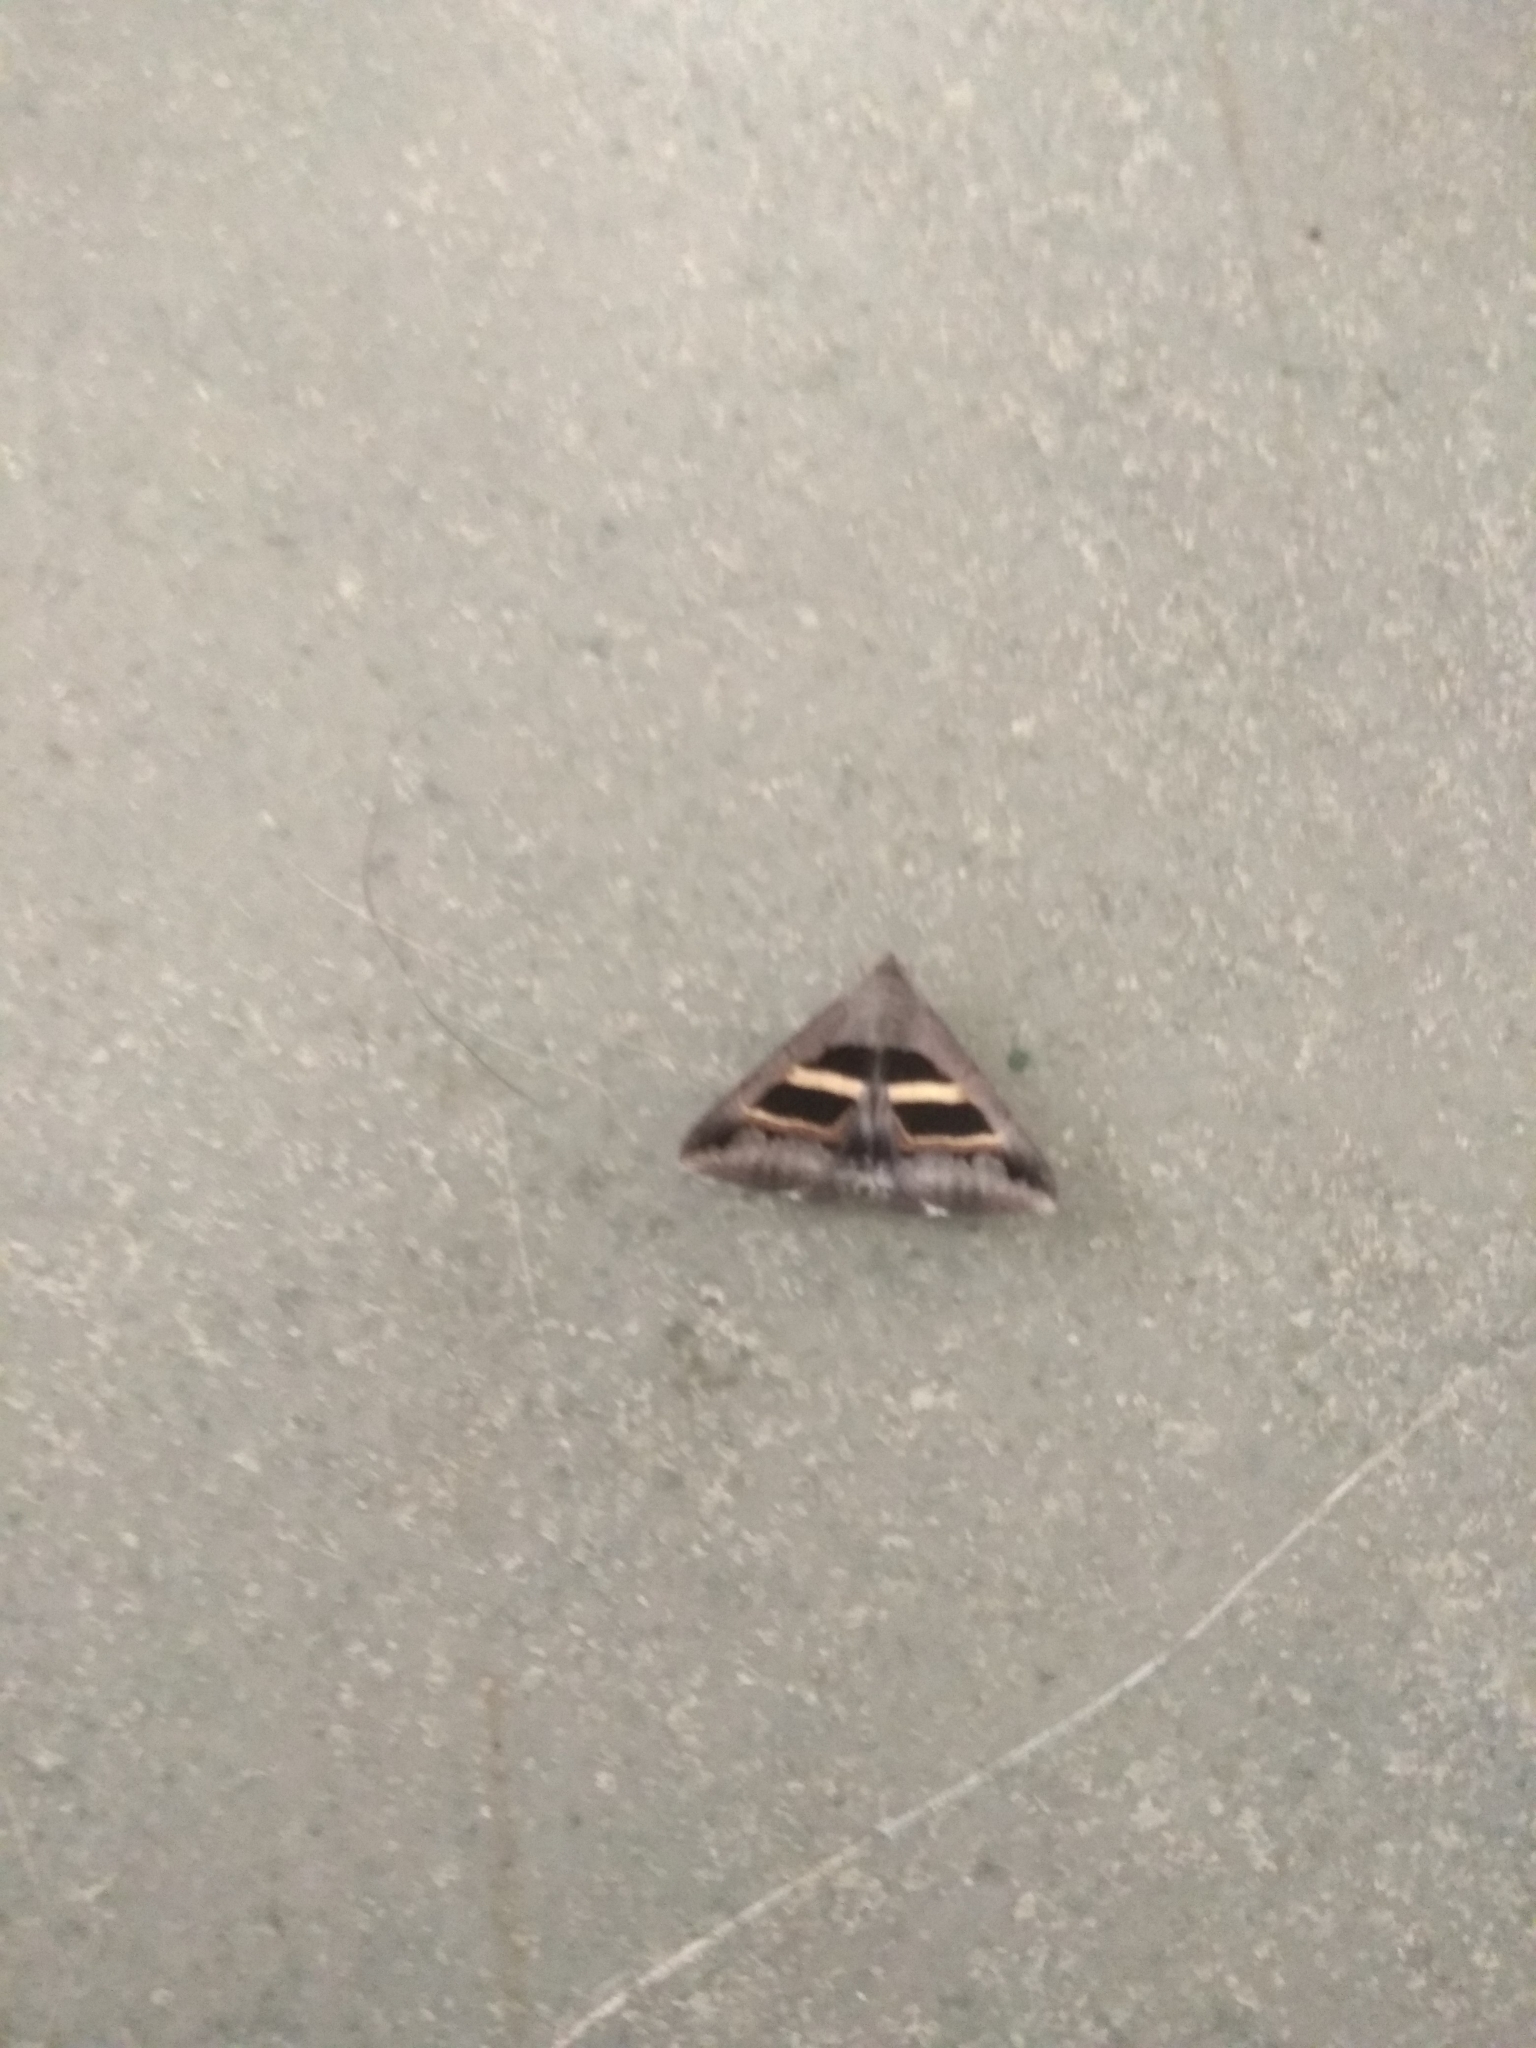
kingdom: Animalia
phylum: Arthropoda
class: Insecta
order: Lepidoptera
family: Erebidae
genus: Grammodes
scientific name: Grammodes geometrica
